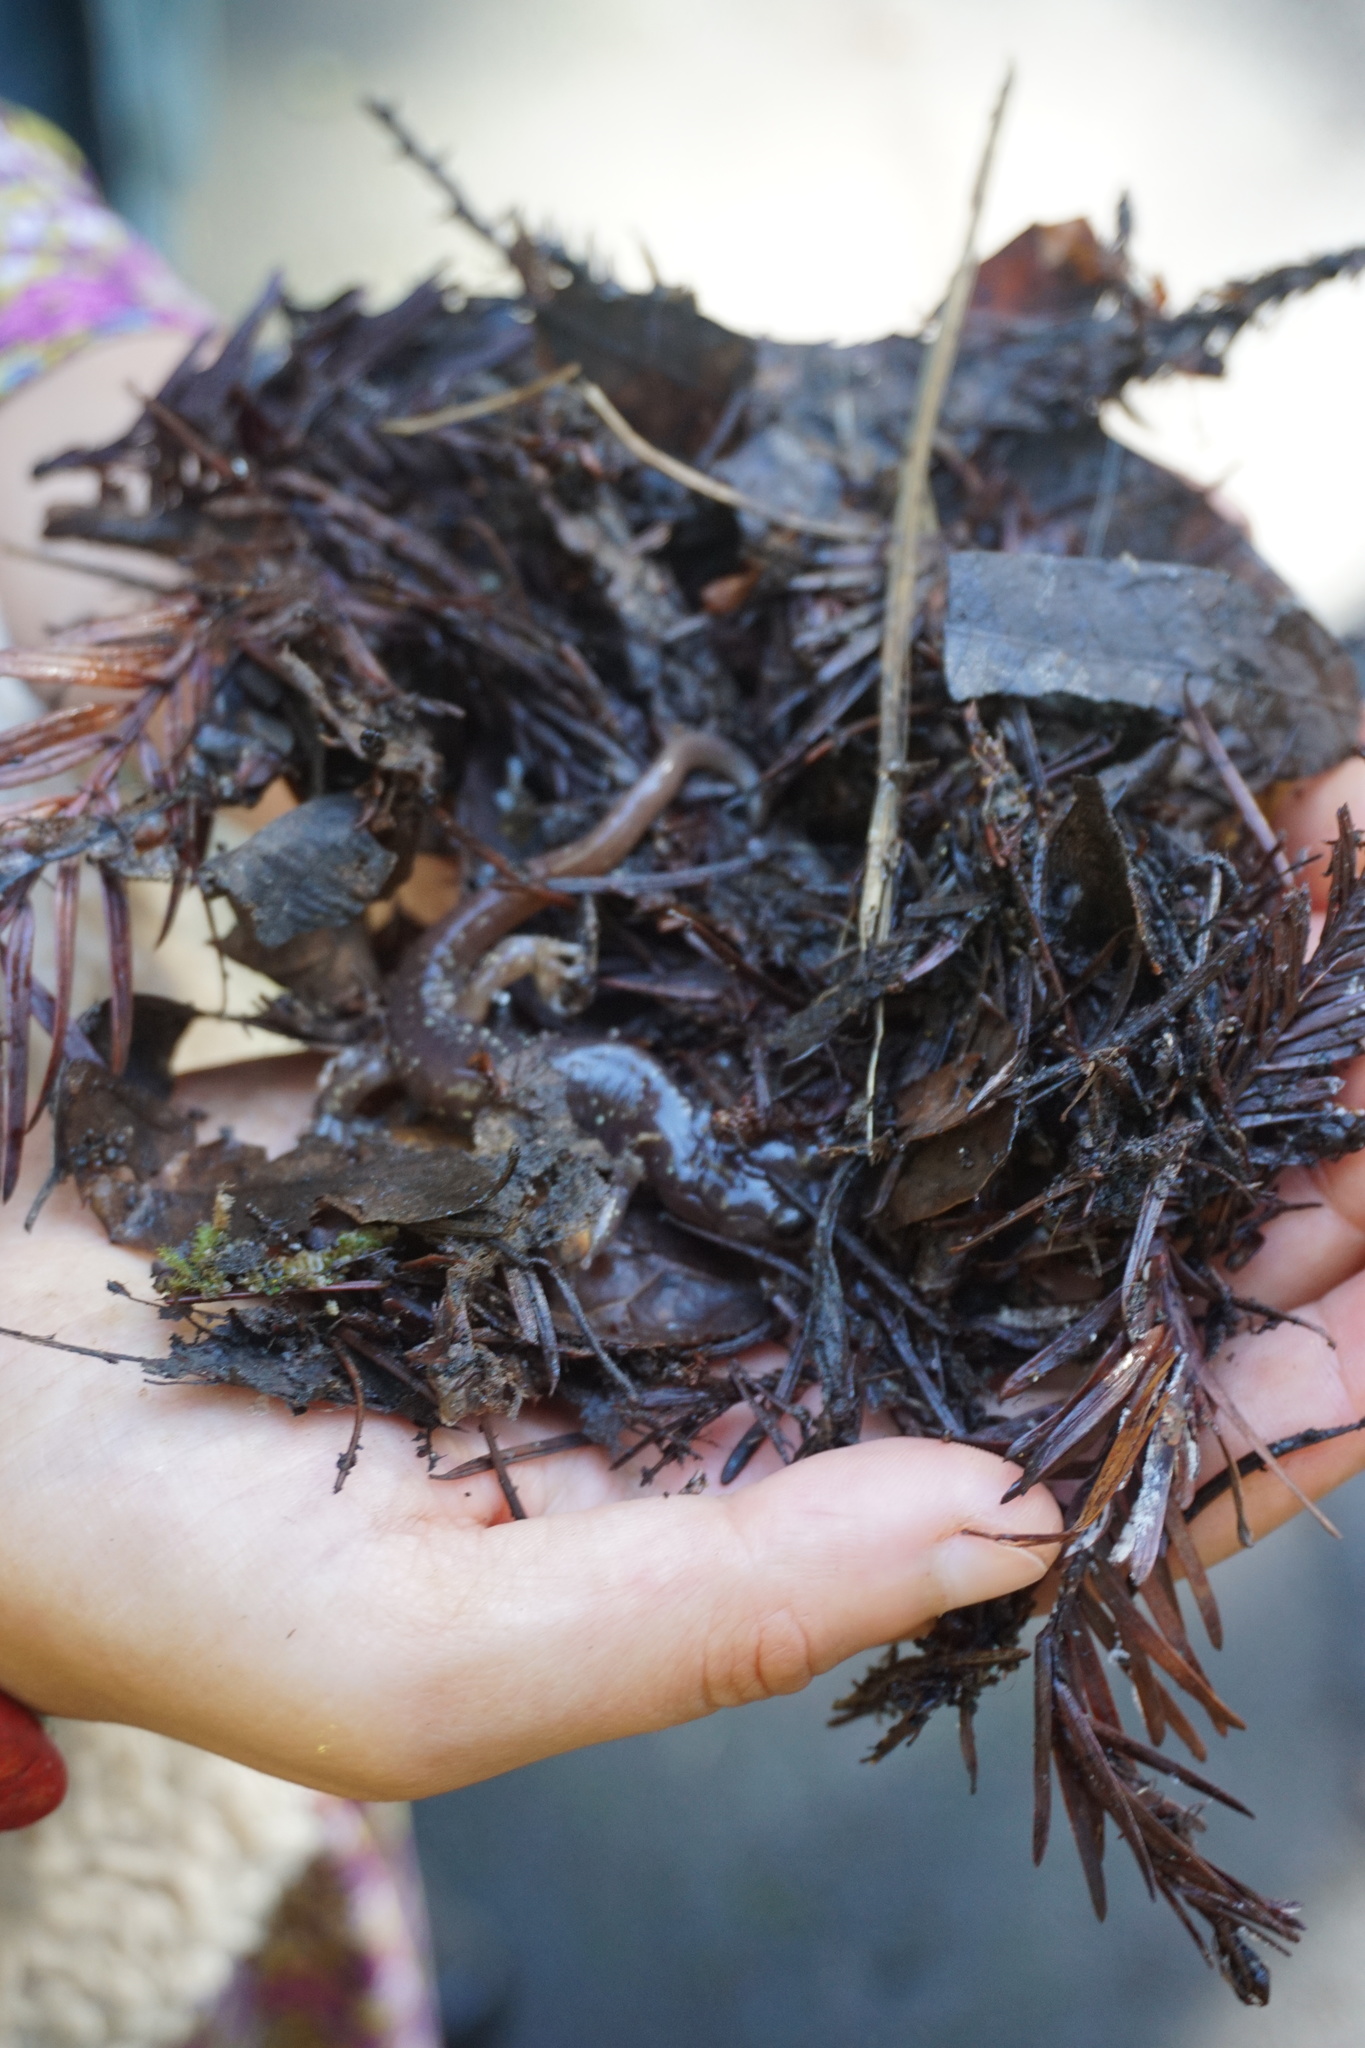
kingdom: Animalia
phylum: Chordata
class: Amphibia
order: Caudata
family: Plethodontidae
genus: Aneides
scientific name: Aneides lugubris
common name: Arboreal salamander
